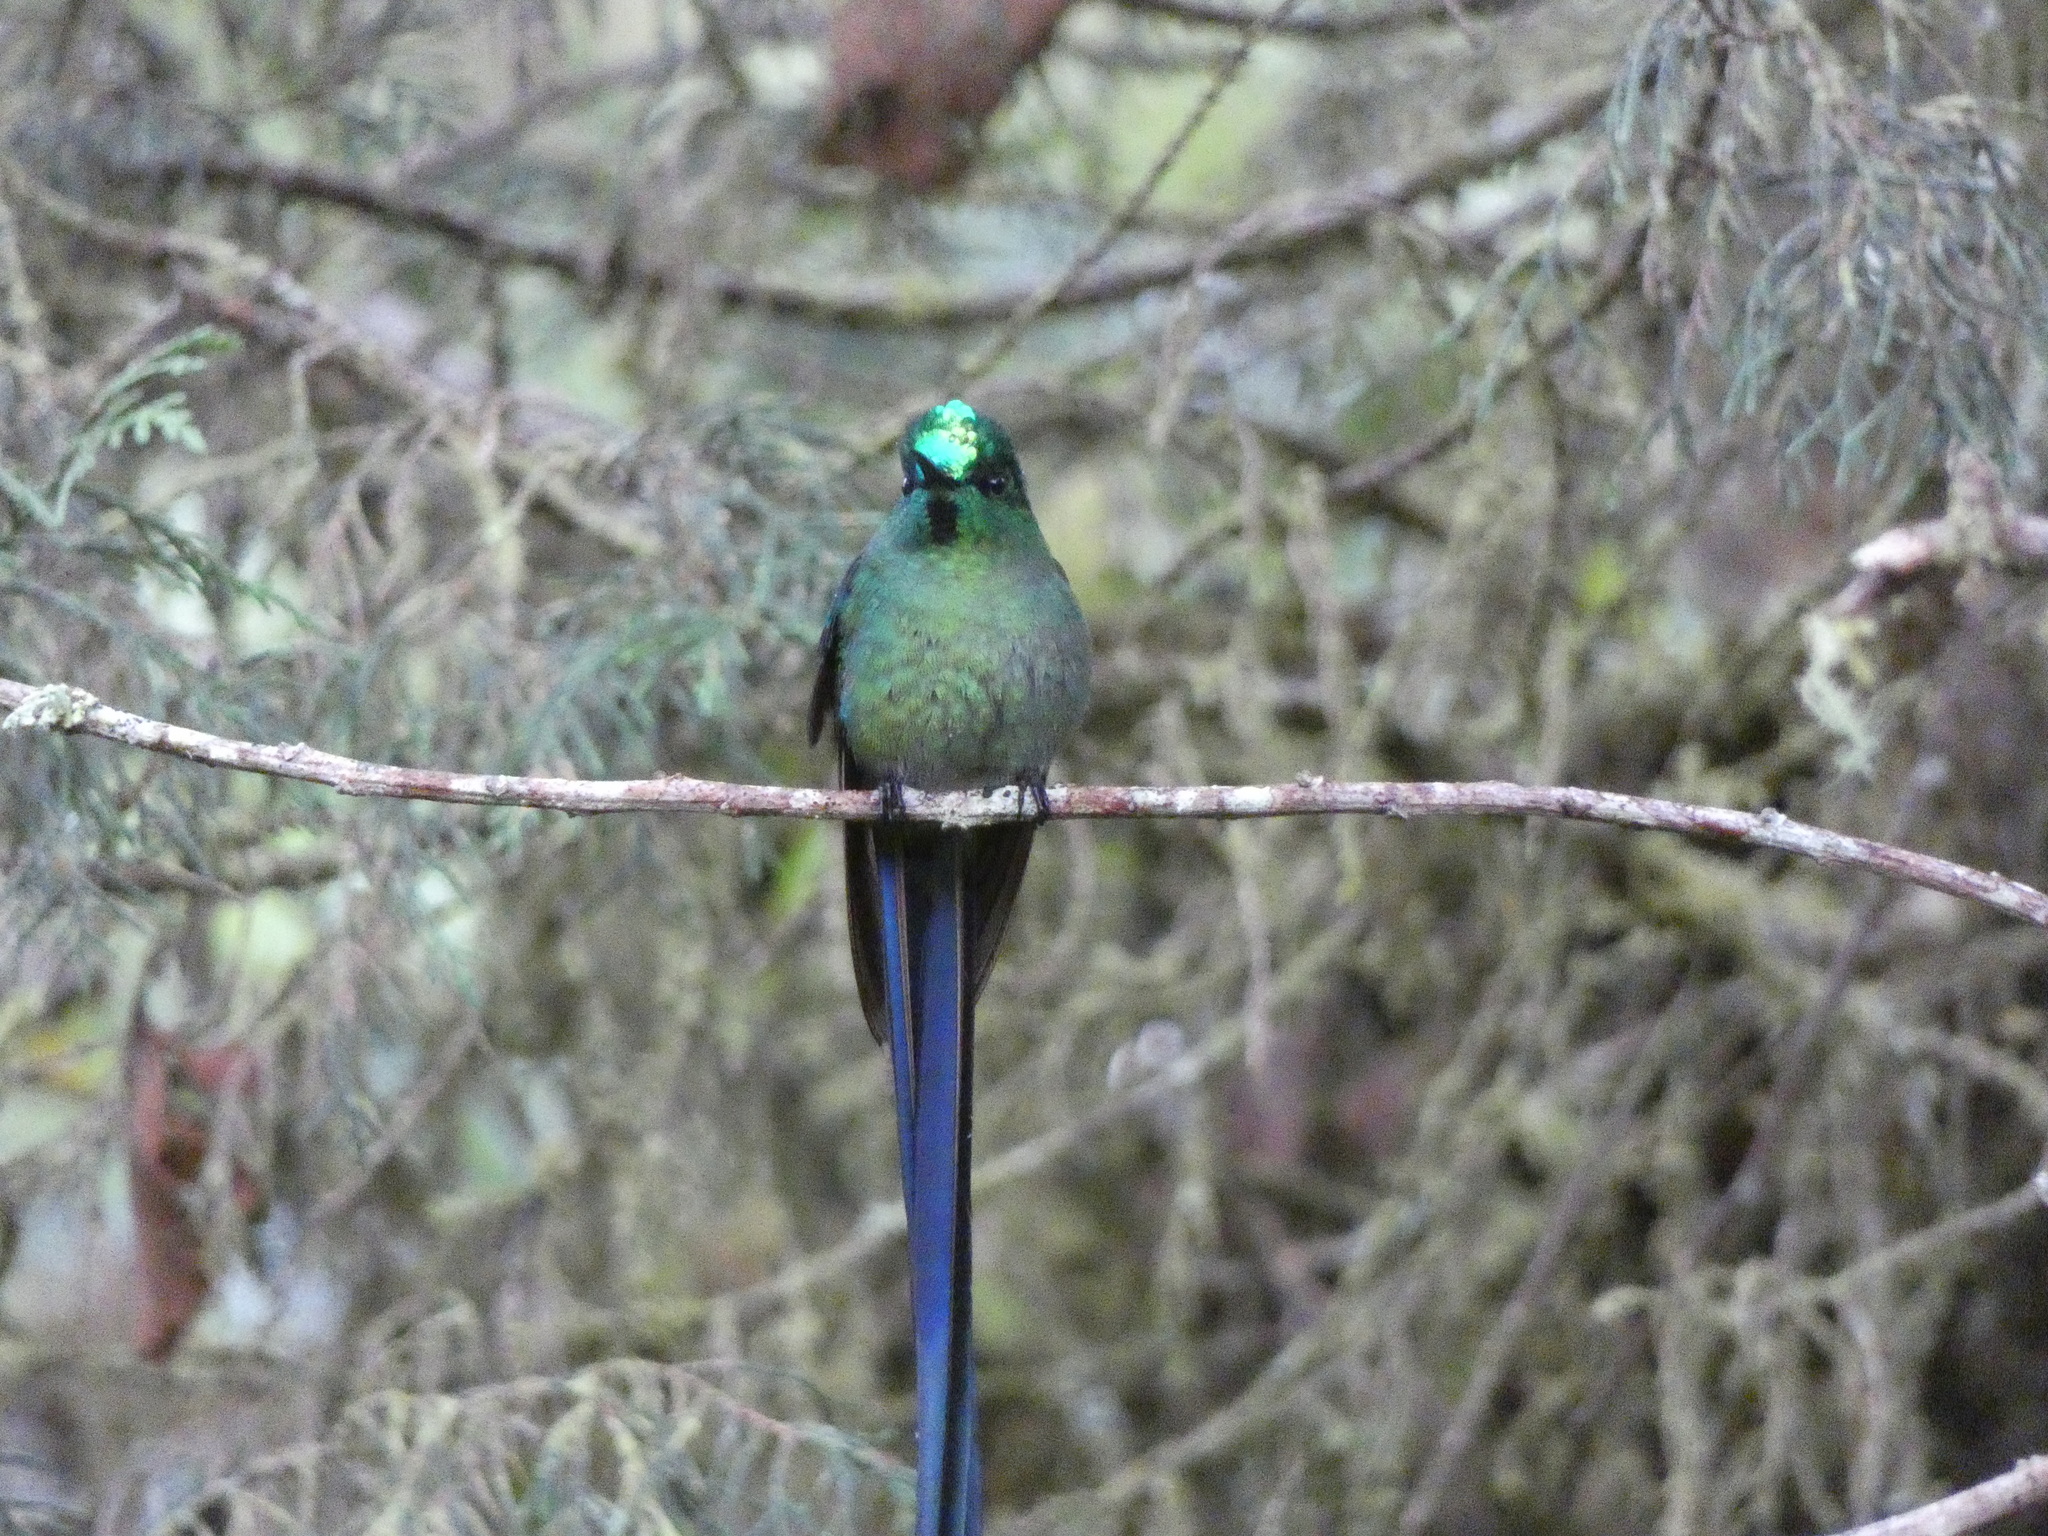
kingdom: Animalia
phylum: Chordata
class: Aves
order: Apodiformes
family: Trochilidae
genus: Aglaiocercus
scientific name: Aglaiocercus kingii
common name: Long-tailed sylph
